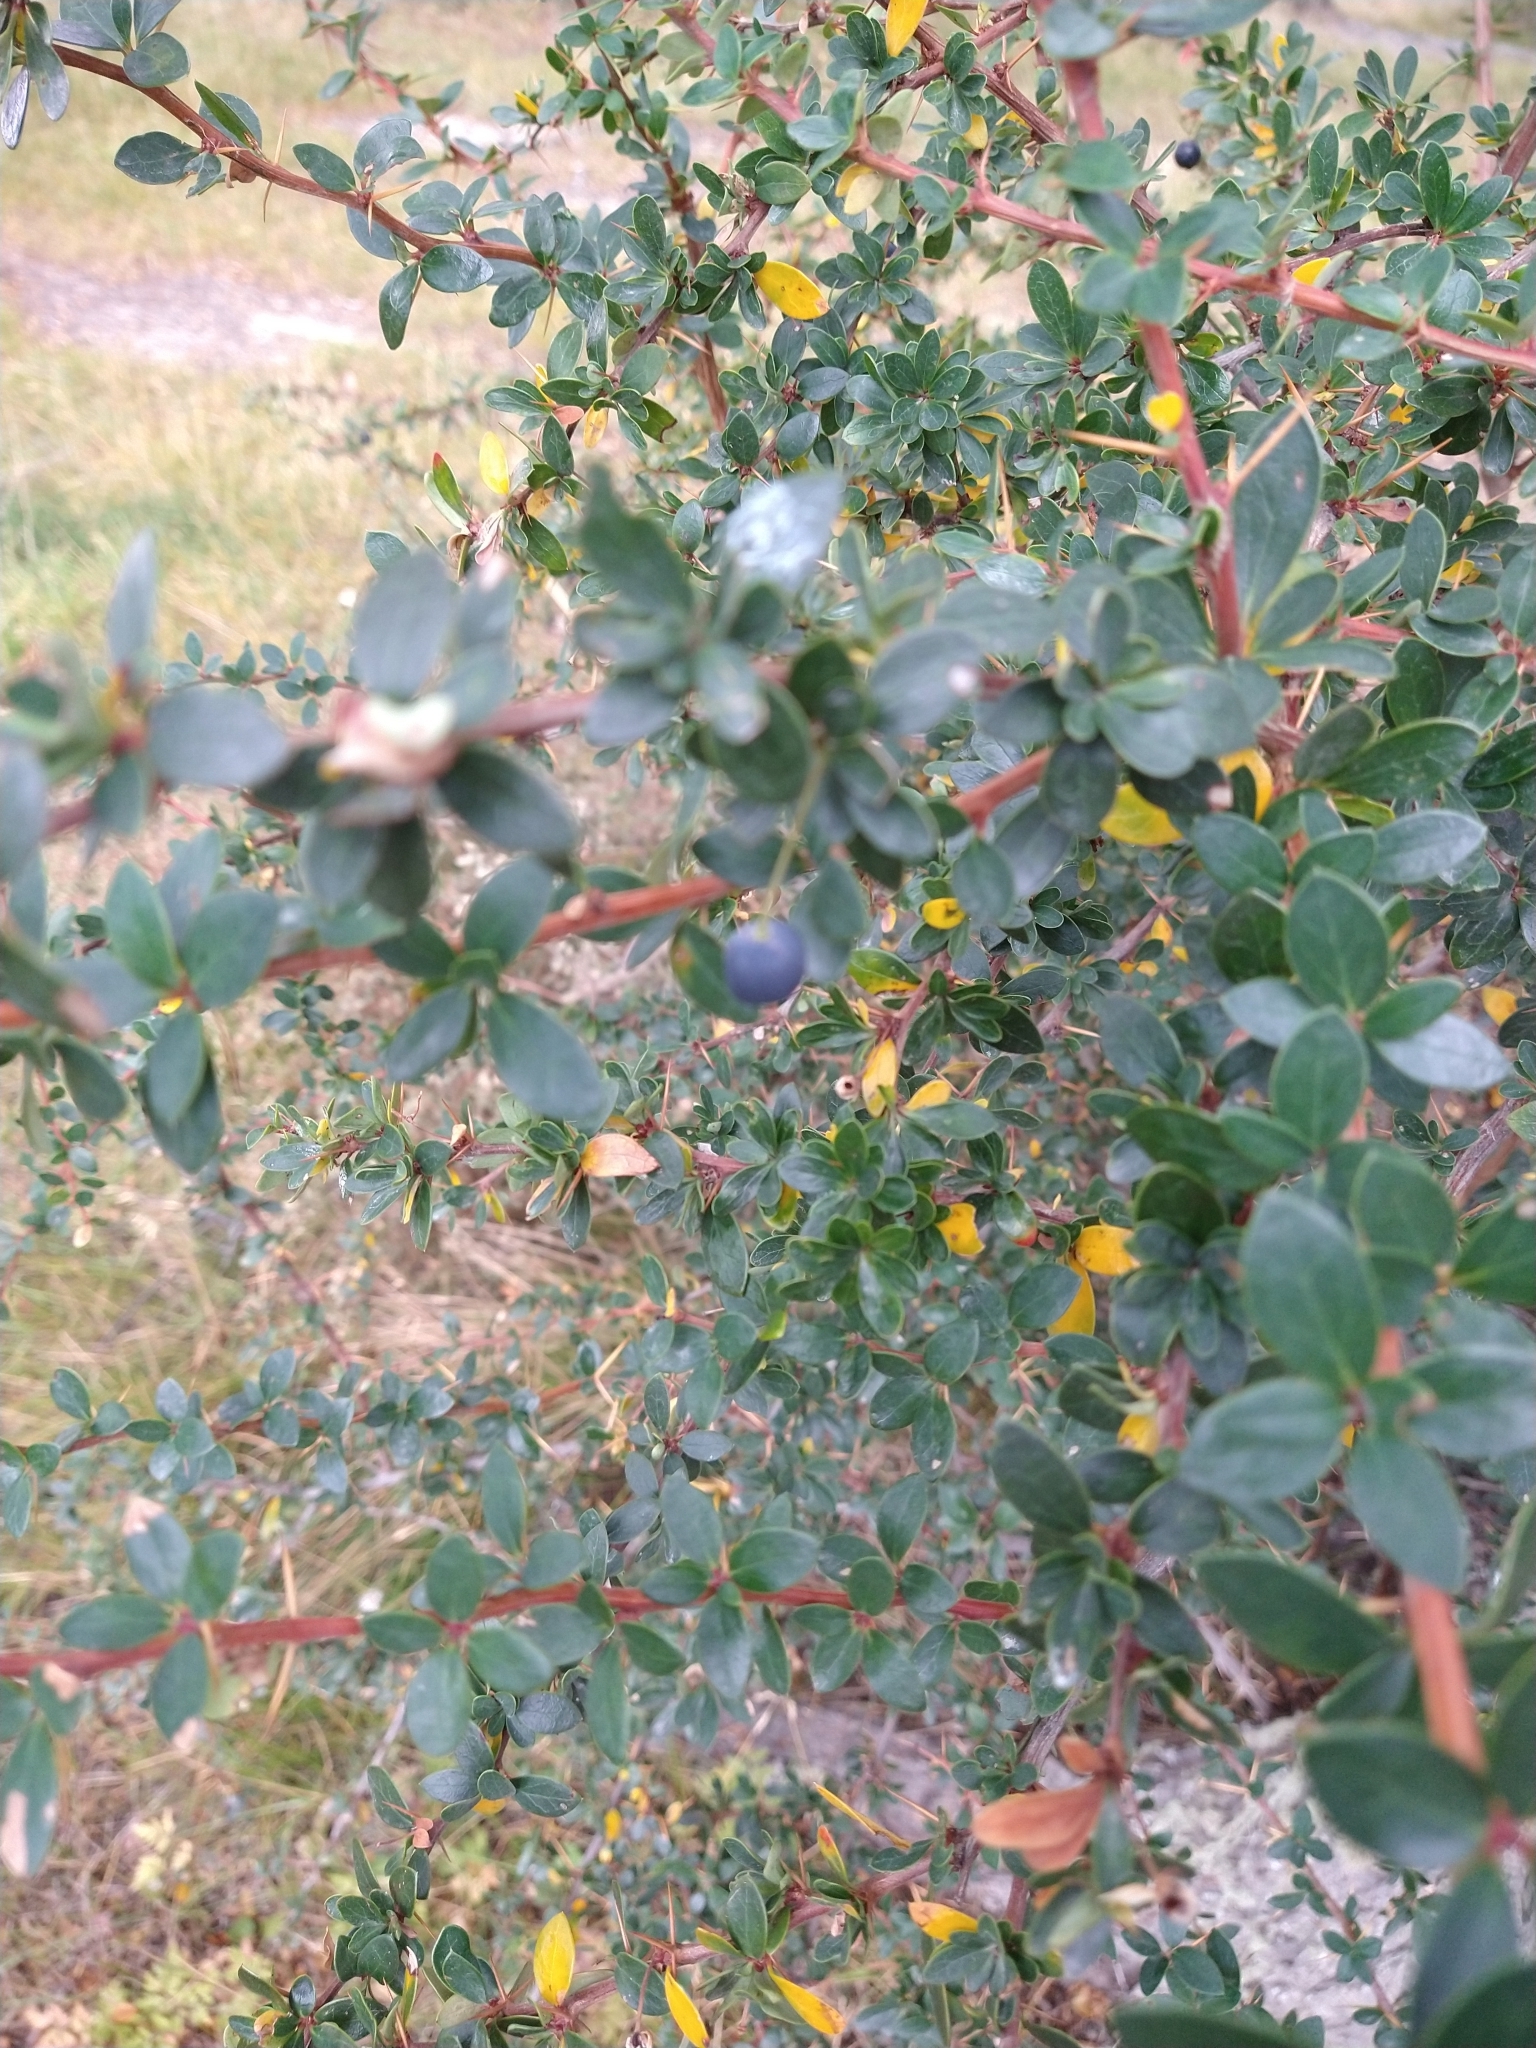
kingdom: Plantae
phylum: Tracheophyta
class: Magnoliopsida
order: Ranunculales
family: Berberidaceae
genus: Berberis
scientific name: Berberis microphylla
